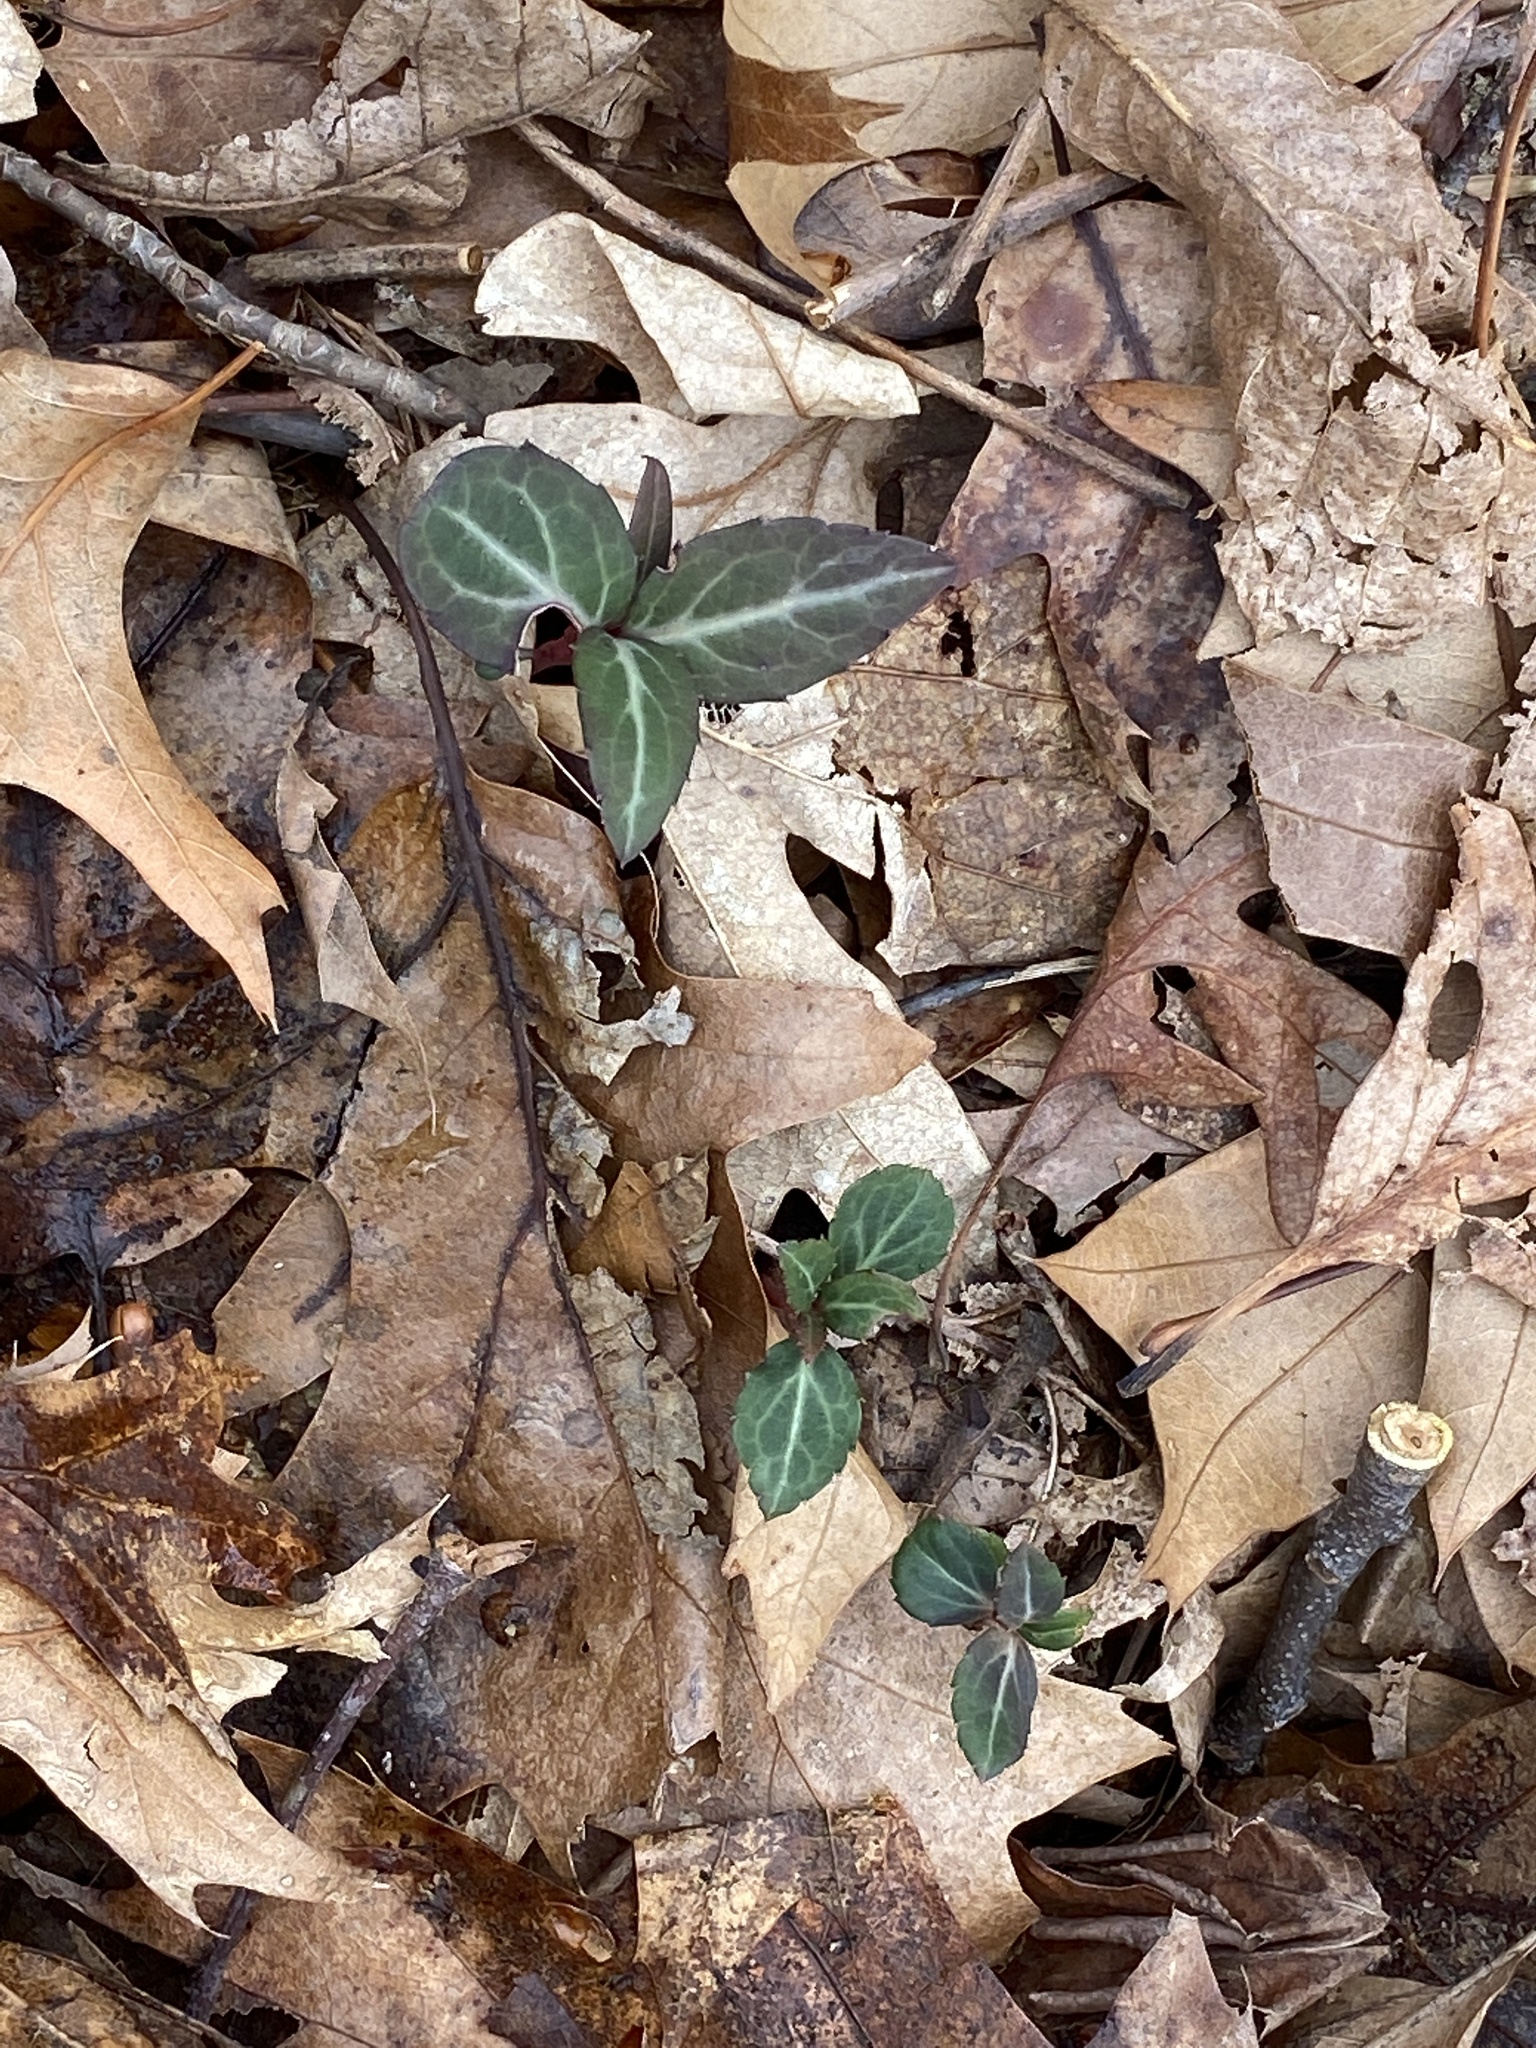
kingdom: Plantae
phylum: Tracheophyta
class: Magnoliopsida
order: Ericales
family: Ericaceae
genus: Chimaphila
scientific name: Chimaphila maculata
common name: Spotted pipsissewa
